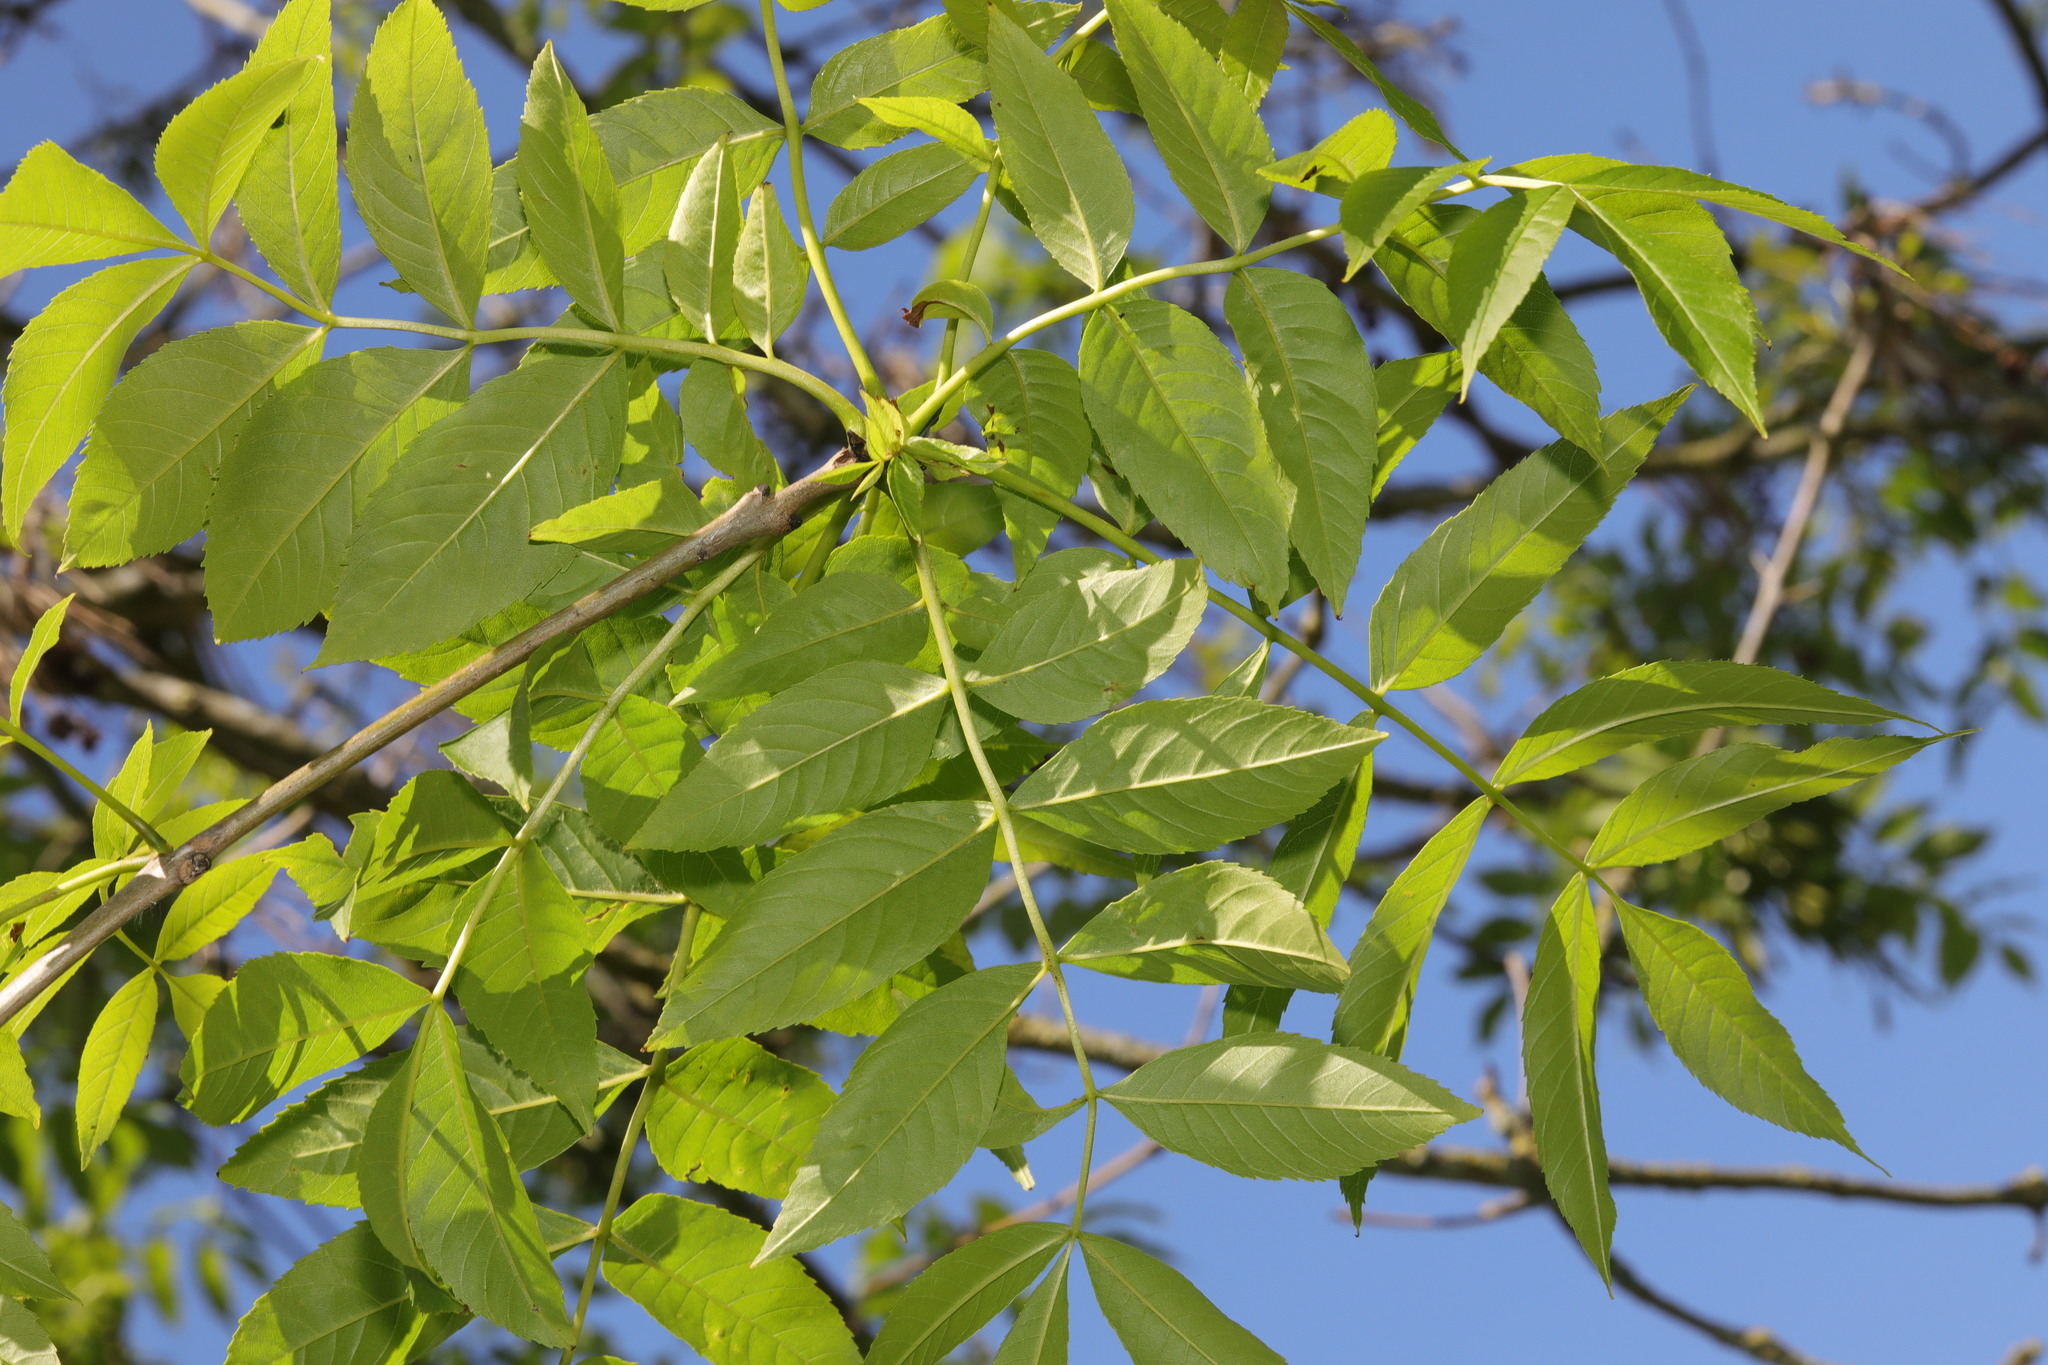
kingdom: Plantae
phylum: Tracheophyta
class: Magnoliopsida
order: Lamiales
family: Oleaceae
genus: Fraxinus
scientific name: Fraxinus excelsior
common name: European ash
